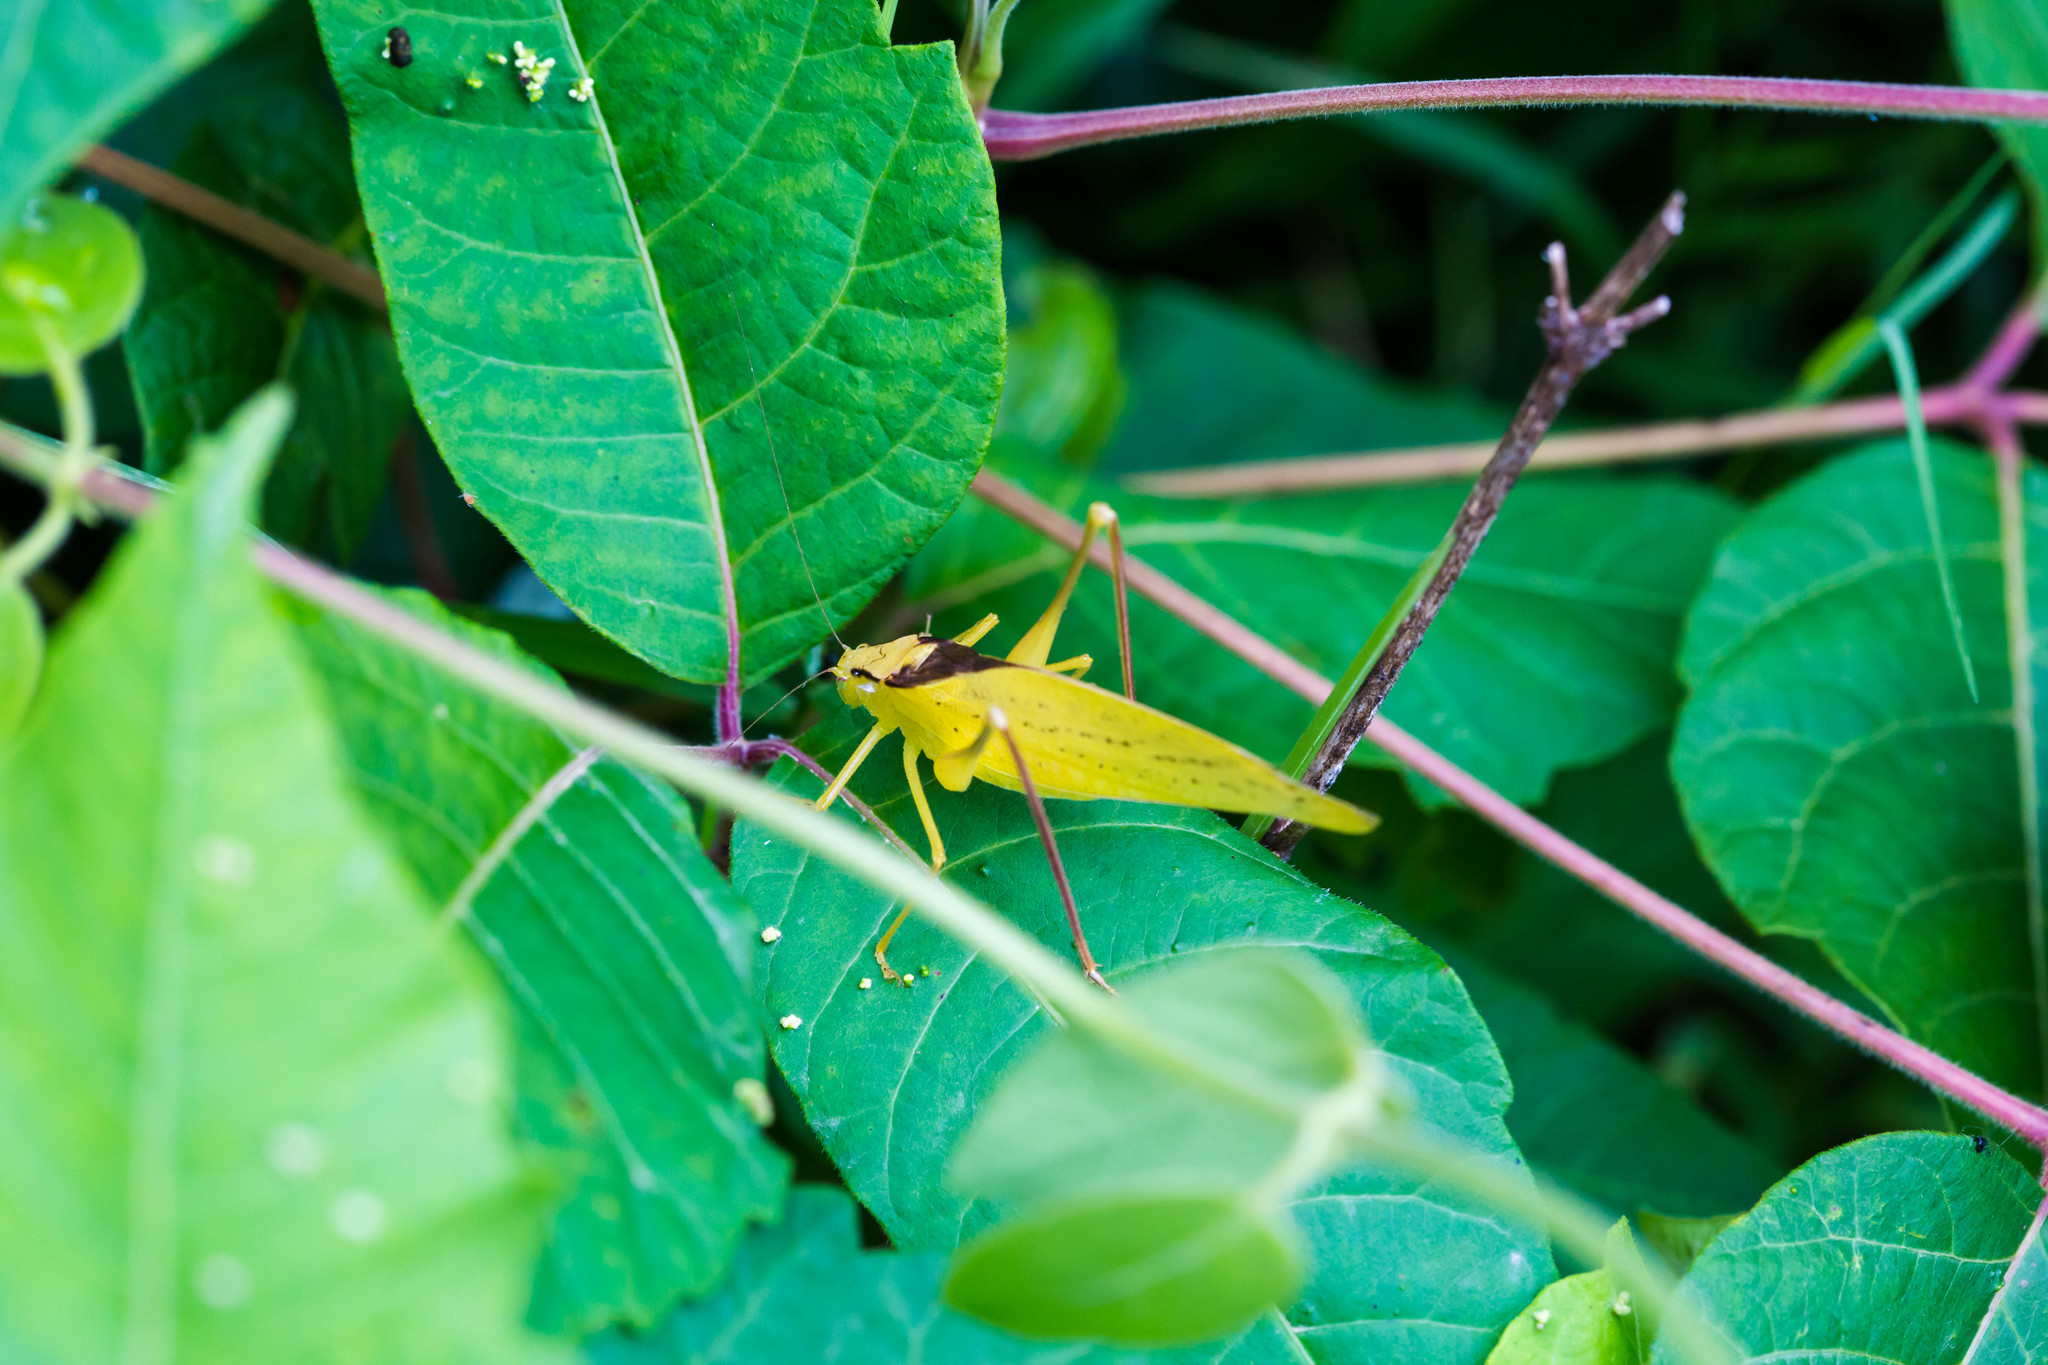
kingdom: Animalia
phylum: Arthropoda
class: Insecta
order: Orthoptera
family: Tettigoniidae
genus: Amblycorypha
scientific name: Amblycorypha oblongifolia
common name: Oblong-winged katydid
